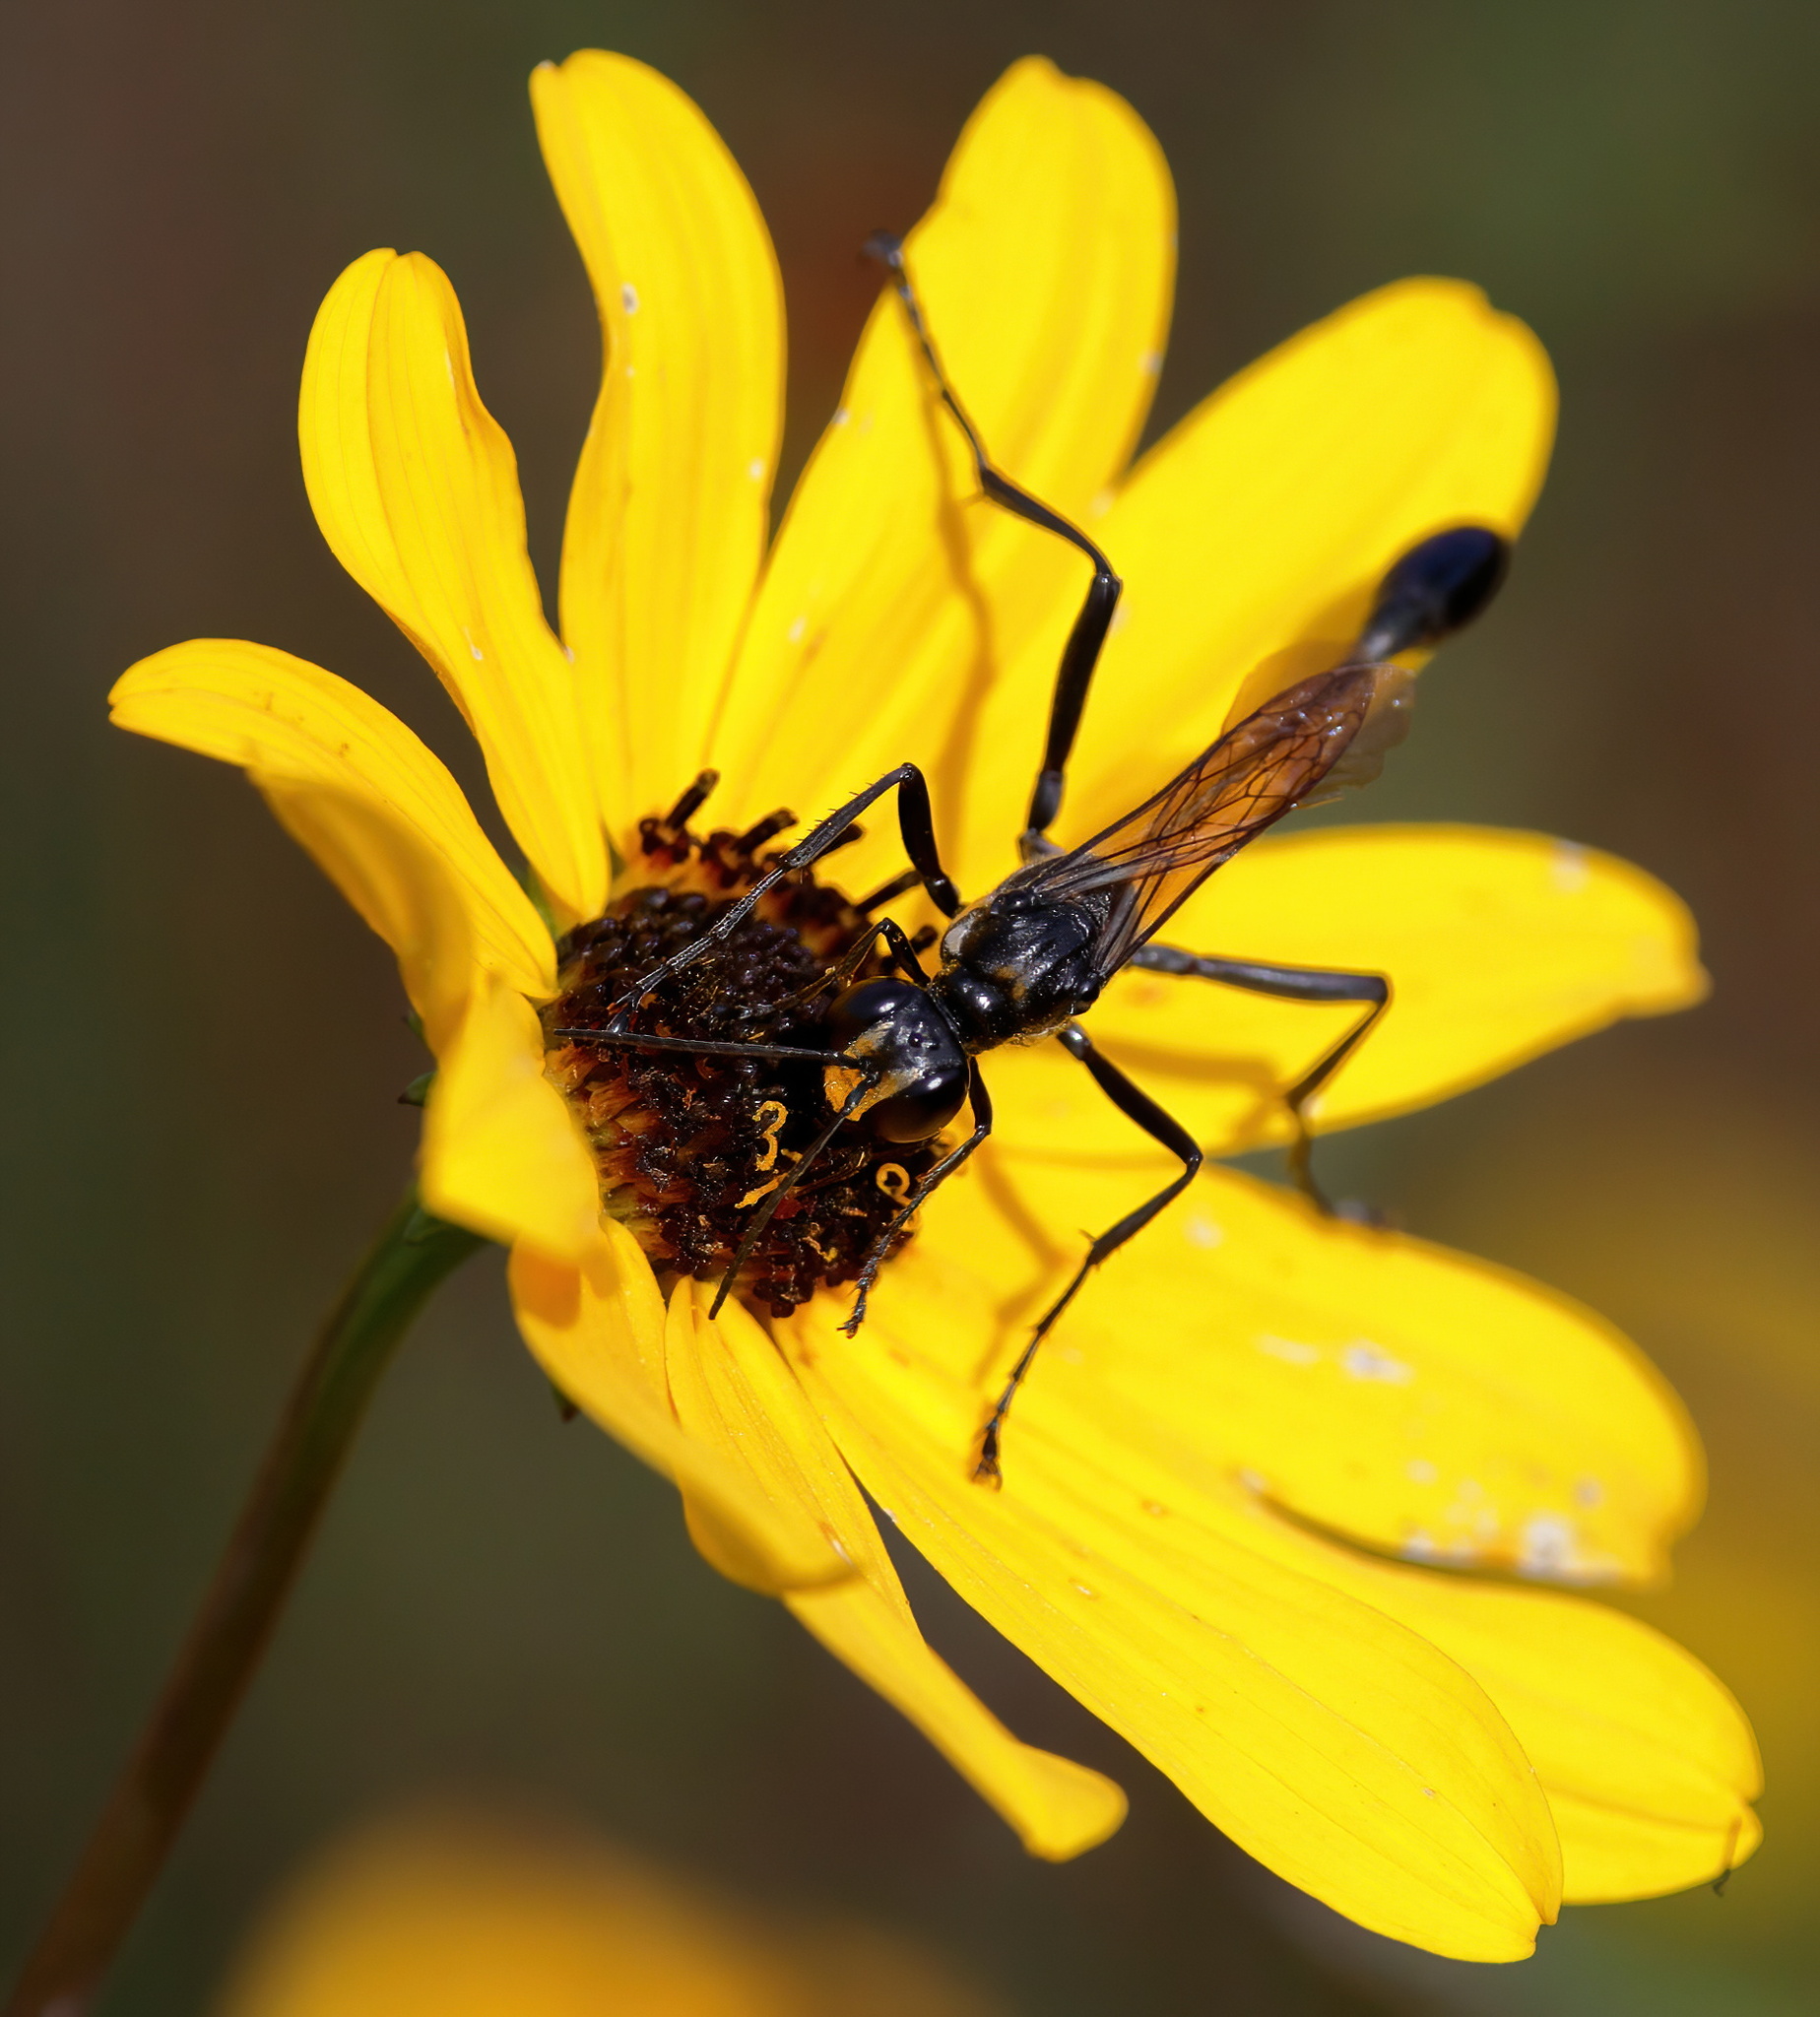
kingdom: Animalia
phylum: Arthropoda
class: Insecta
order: Hymenoptera
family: Sphecidae
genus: Eremnophila
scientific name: Eremnophila aureonotata
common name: Gold-marked thread-waisted wasp
